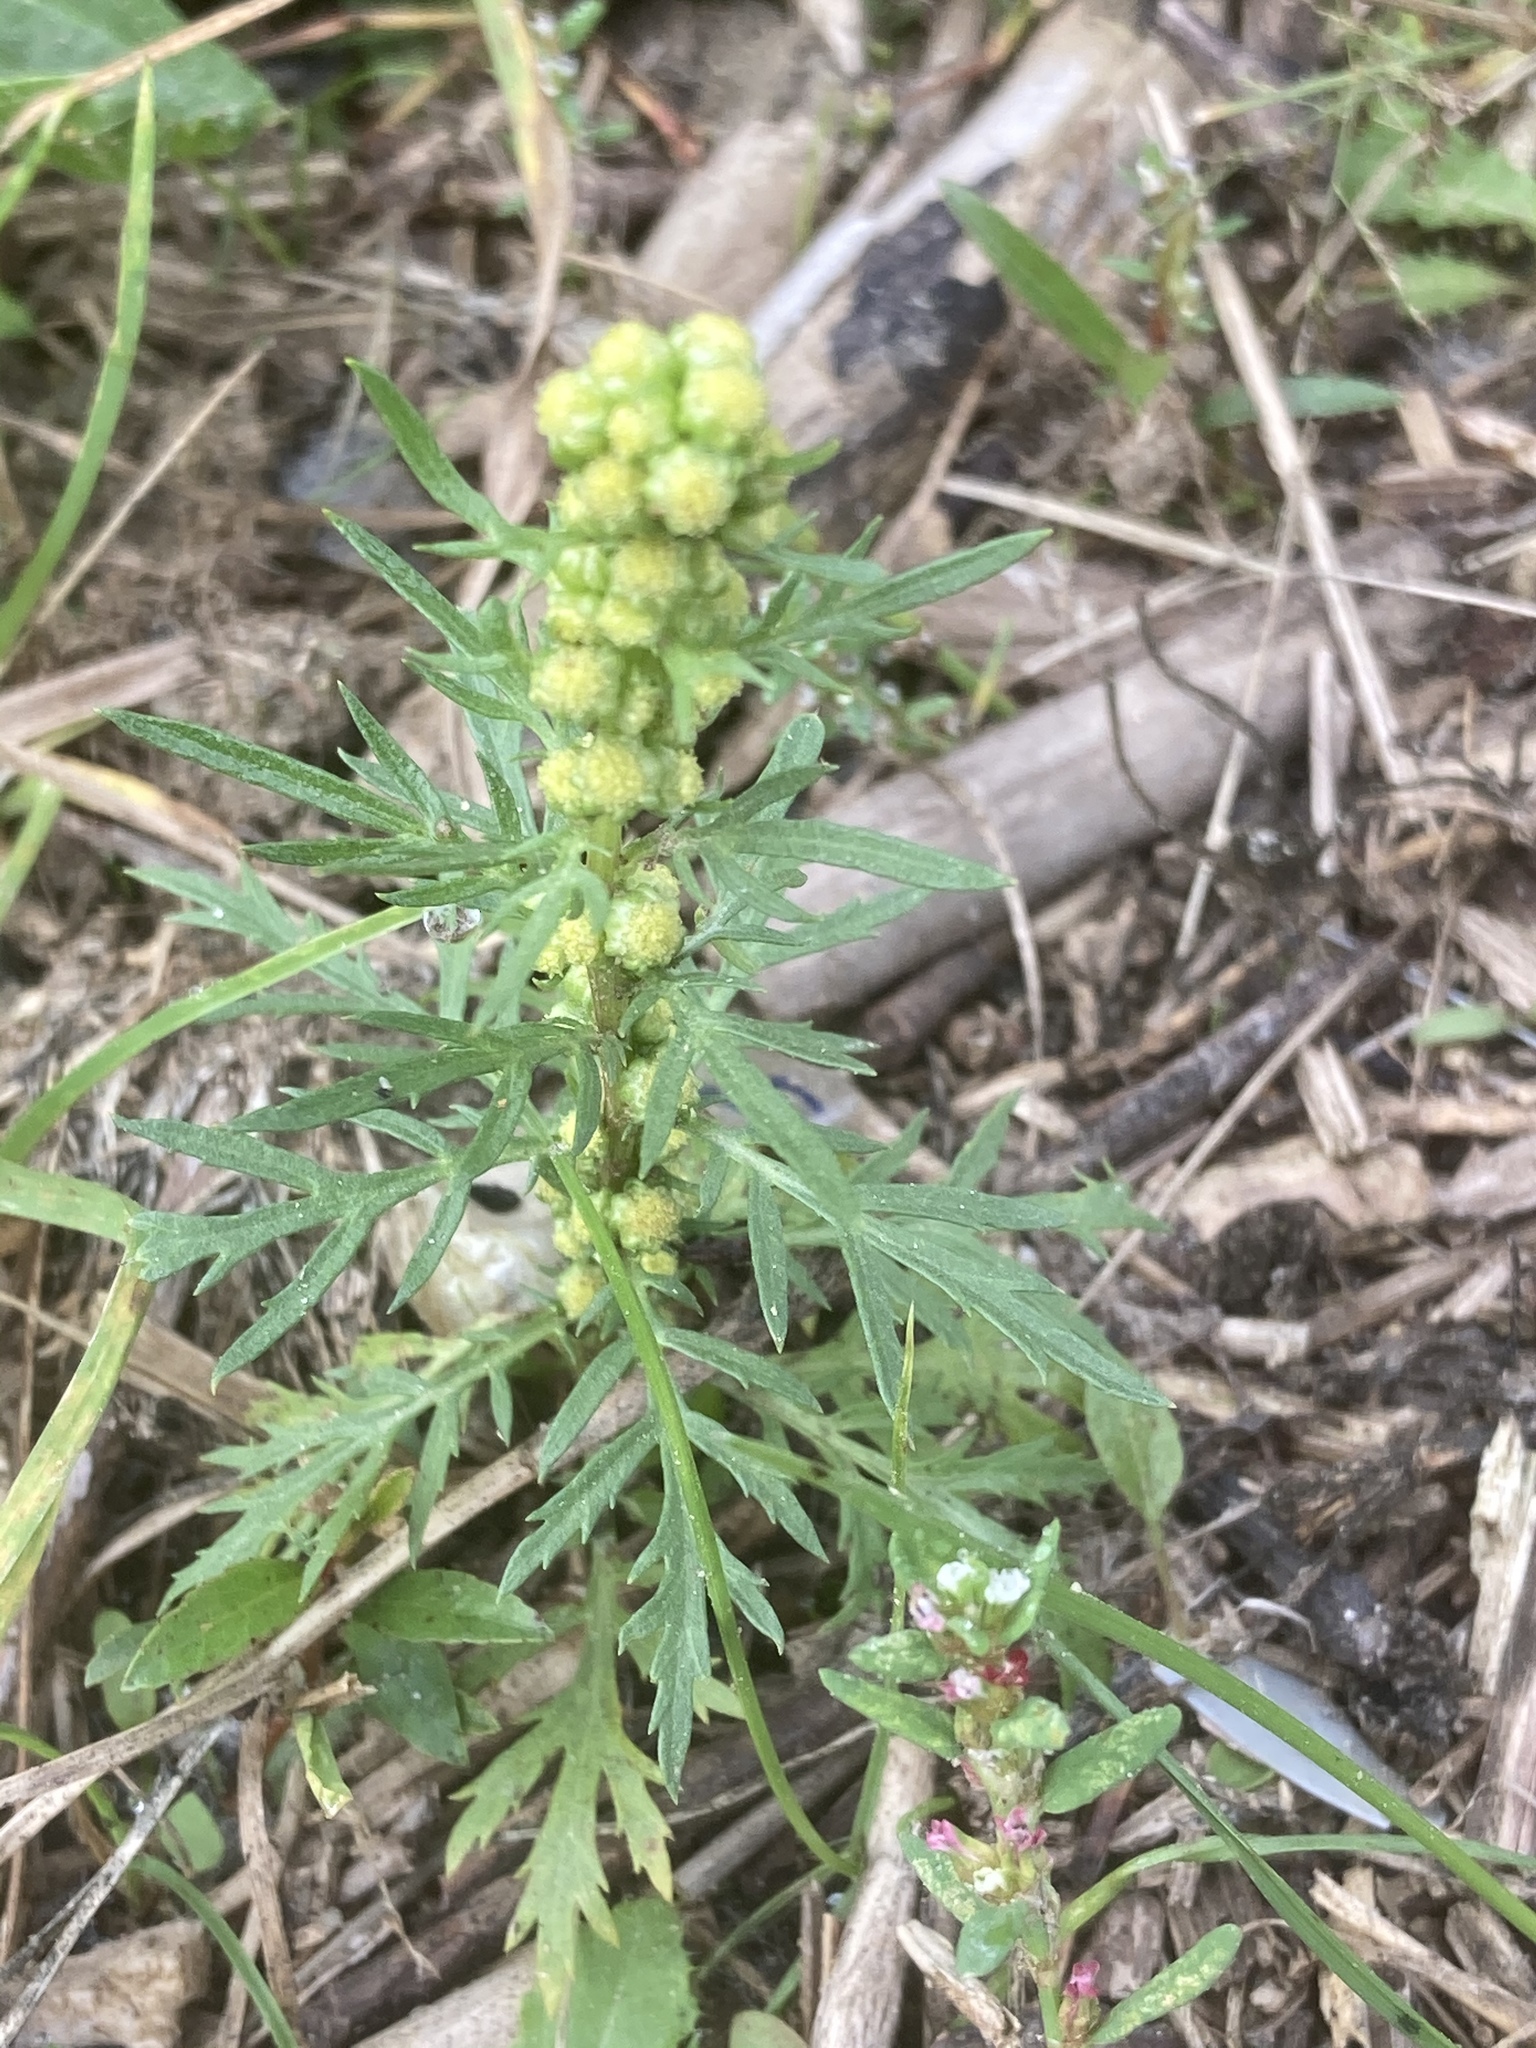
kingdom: Plantae
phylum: Tracheophyta
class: Magnoliopsida
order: Asterales
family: Asteraceae
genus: Artemisia
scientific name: Artemisia biennis
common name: Biennial wormwood
